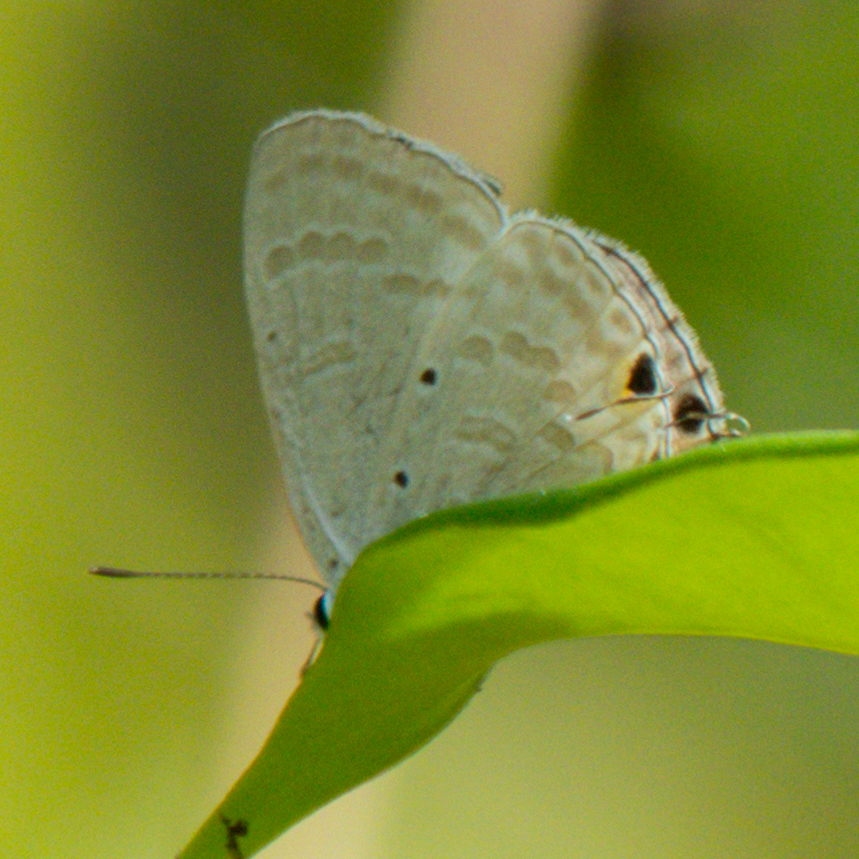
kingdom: Animalia
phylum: Arthropoda
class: Insecta
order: Lepidoptera
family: Lycaenidae
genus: Catochrysops
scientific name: Catochrysops strabo
